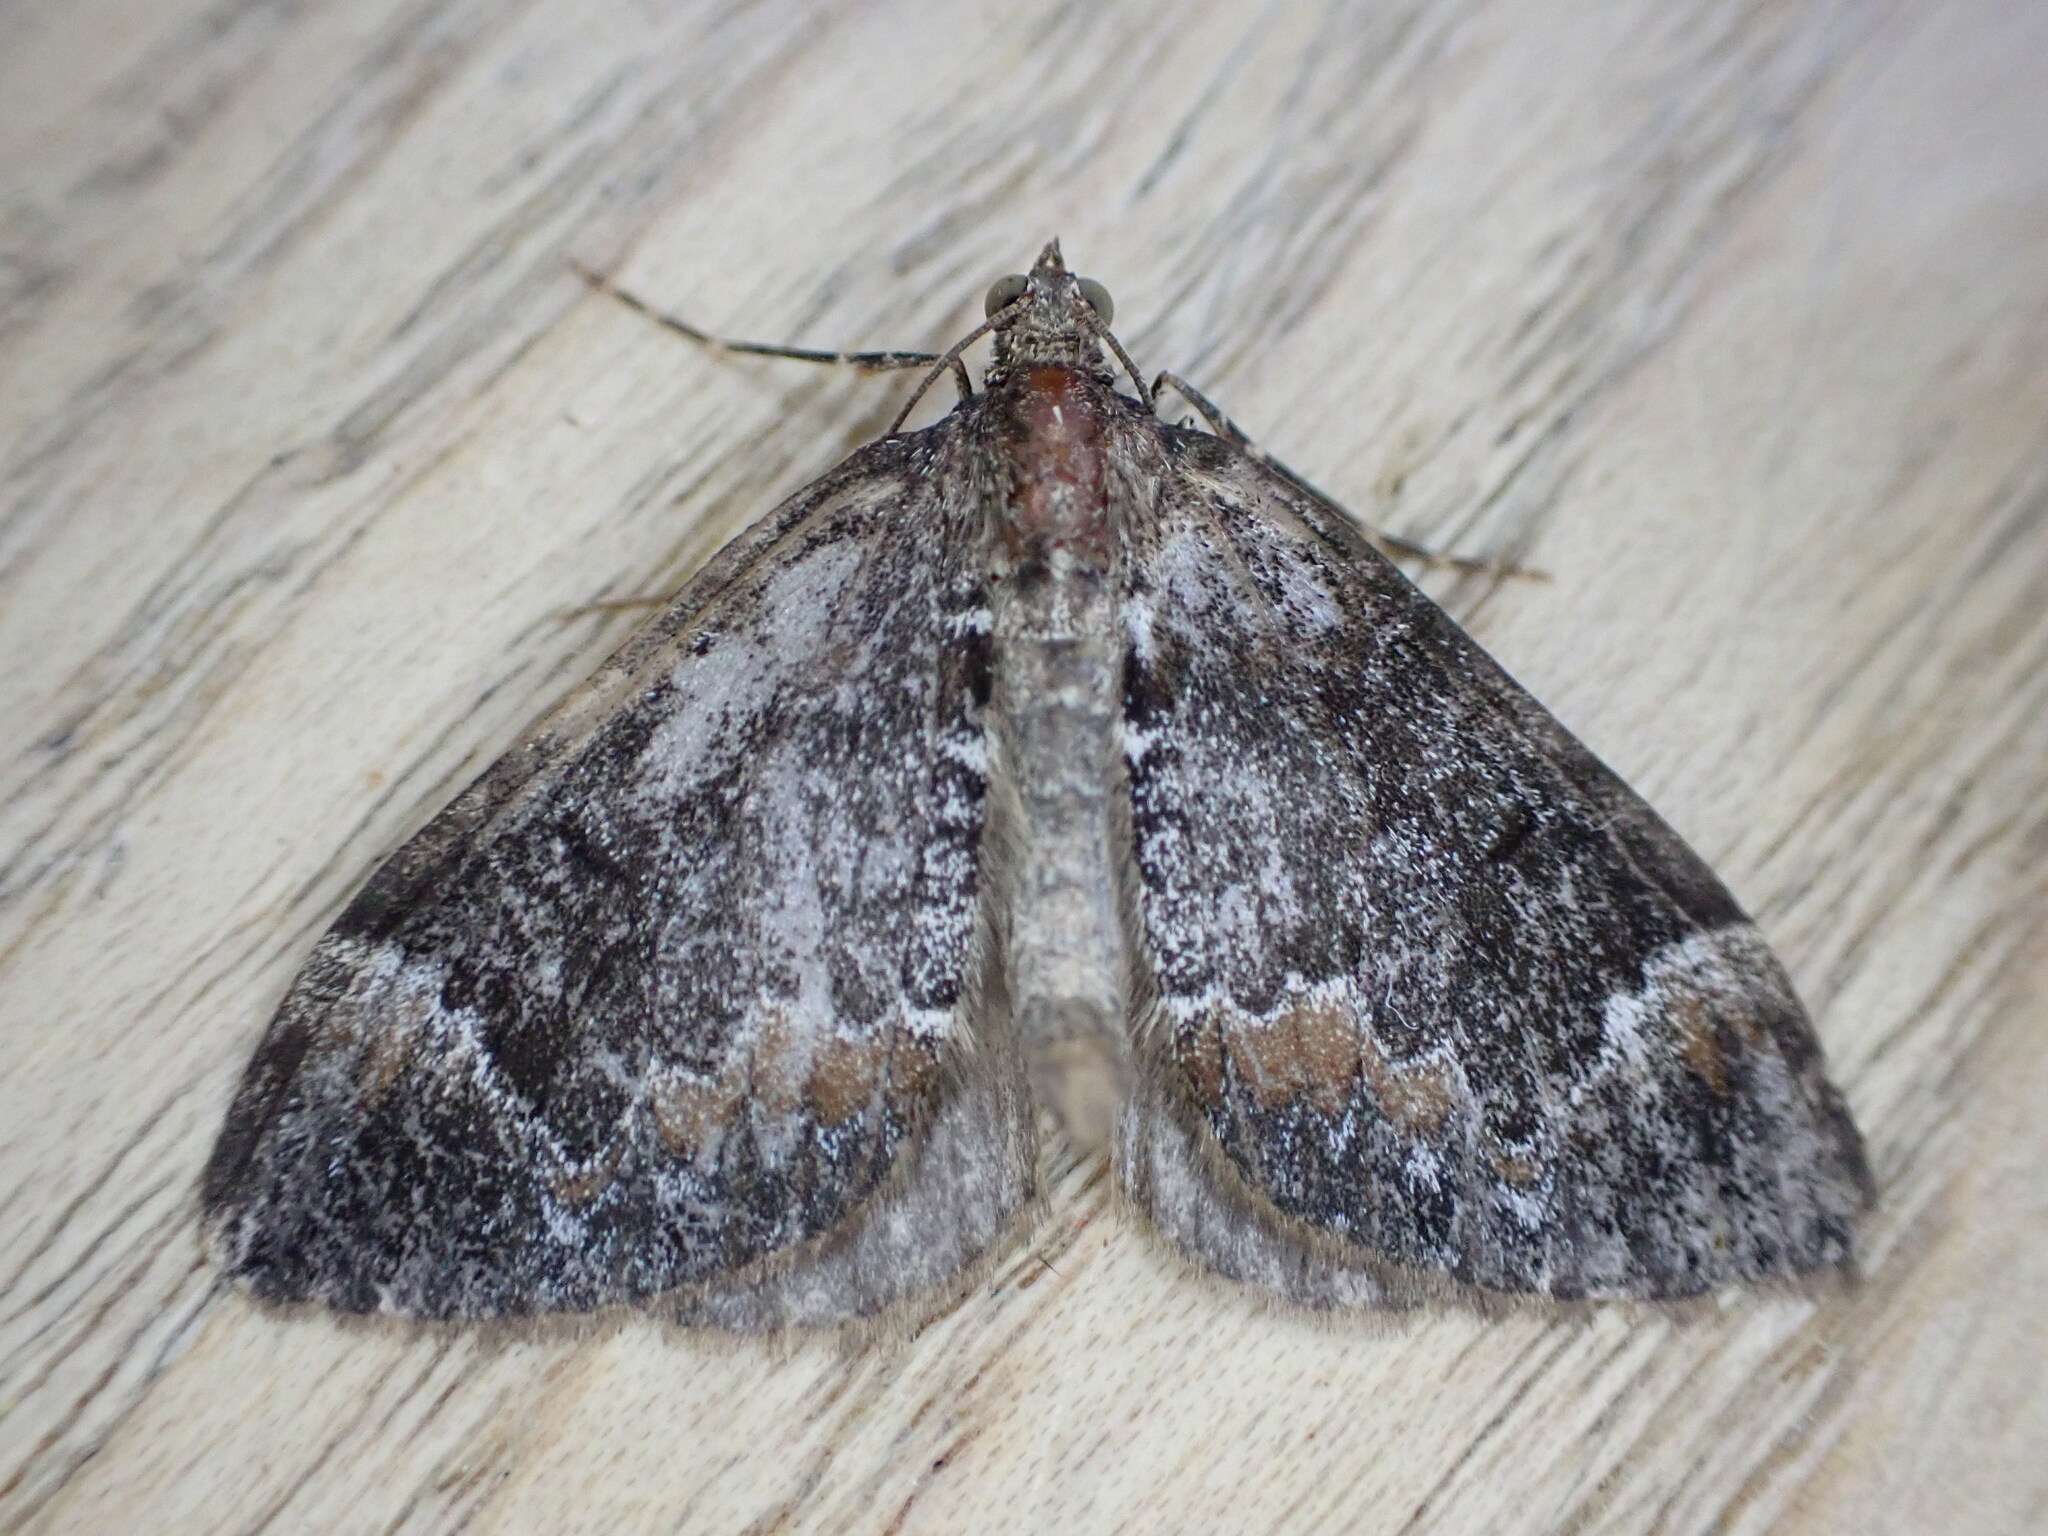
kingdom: Animalia
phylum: Arthropoda
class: Insecta
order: Lepidoptera
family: Geometridae
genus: Dysstroma
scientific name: Dysstroma truncata
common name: Common marbled carpet
